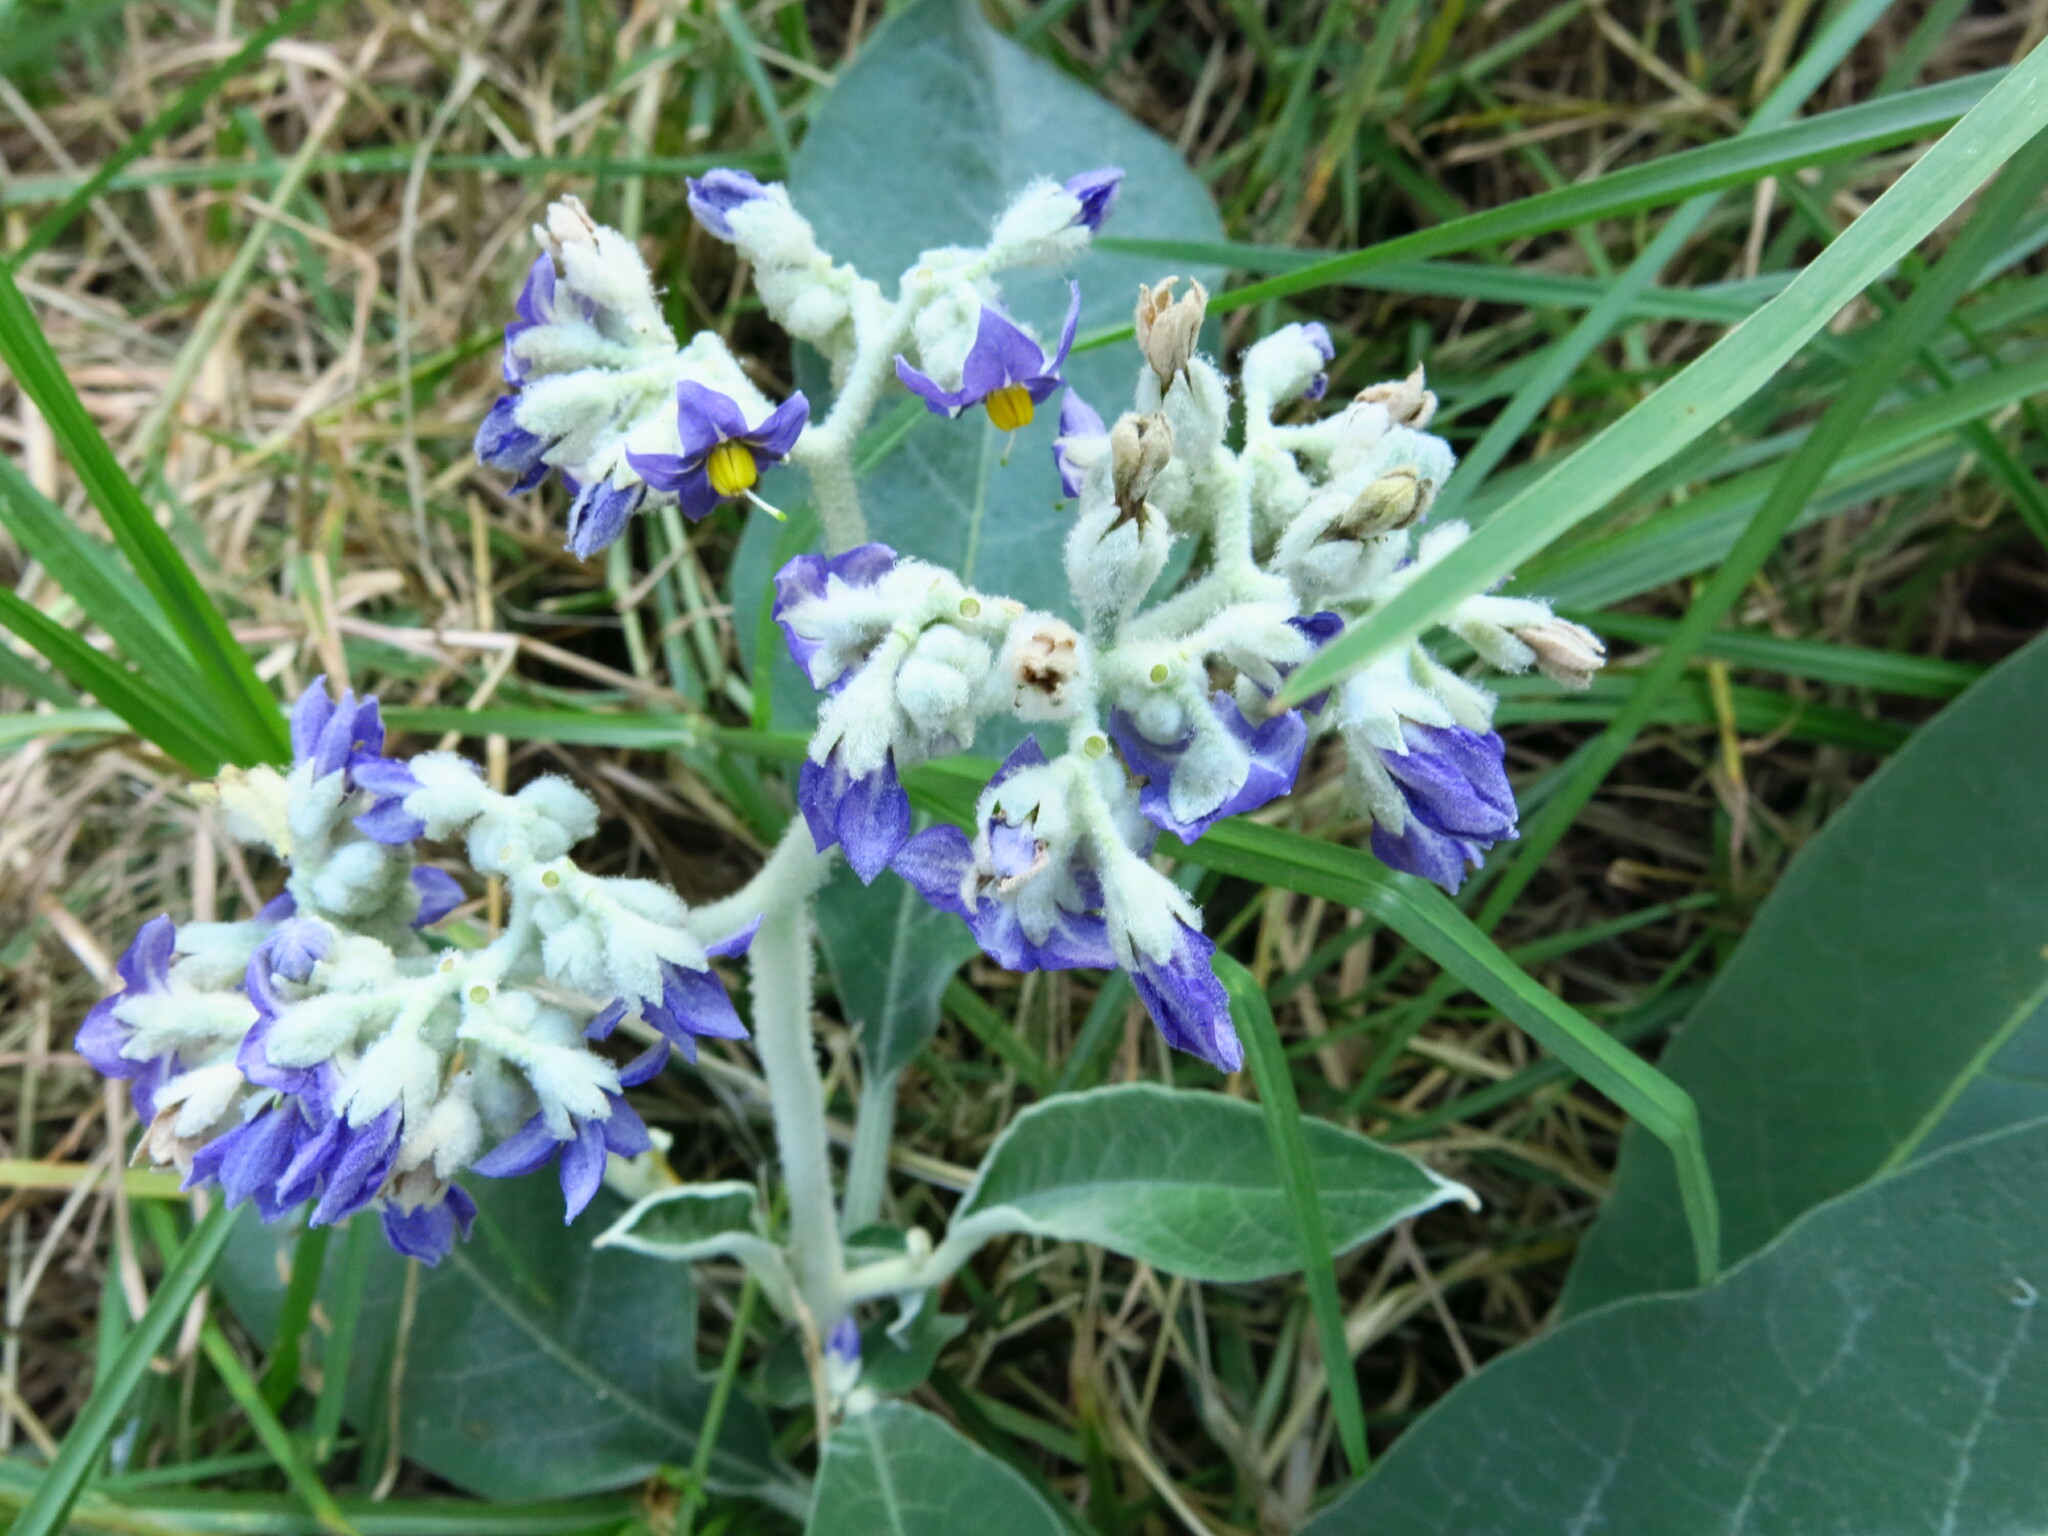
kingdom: Plantae
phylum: Tracheophyta
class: Magnoliopsida
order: Solanales
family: Solanaceae
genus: Solanum
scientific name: Solanum mauritianum
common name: Earleaf nightshade
